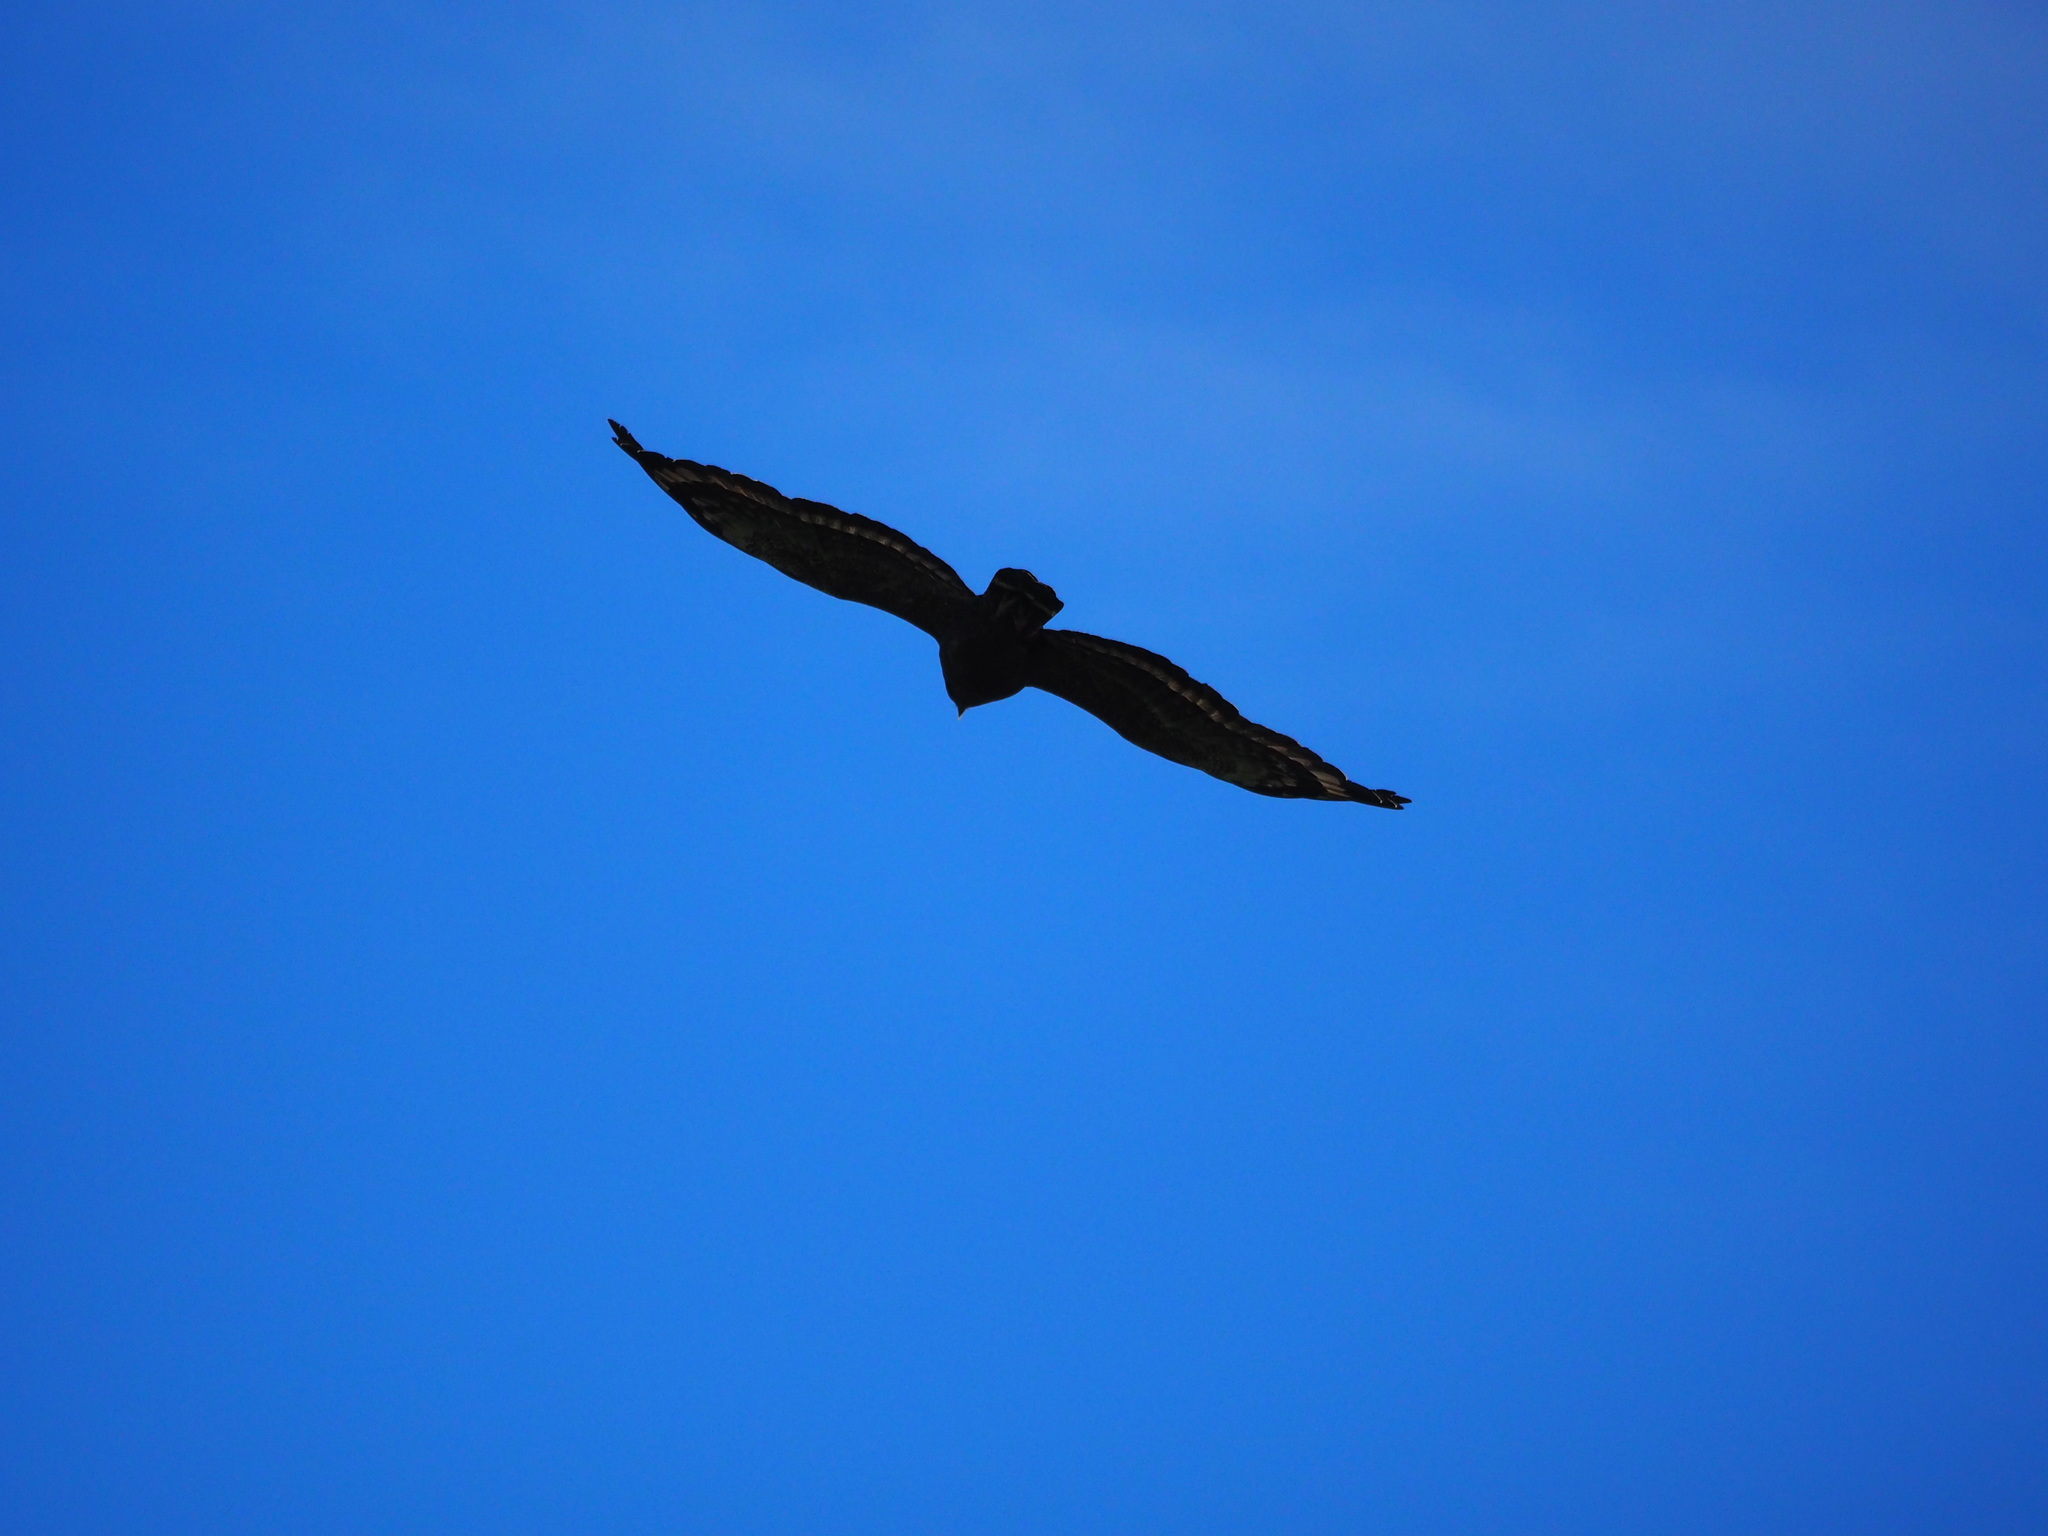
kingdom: Animalia
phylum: Chordata
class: Aves
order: Accipitriformes
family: Accipitridae
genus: Spilornis
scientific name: Spilornis cheela
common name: Crested serpent eagle
